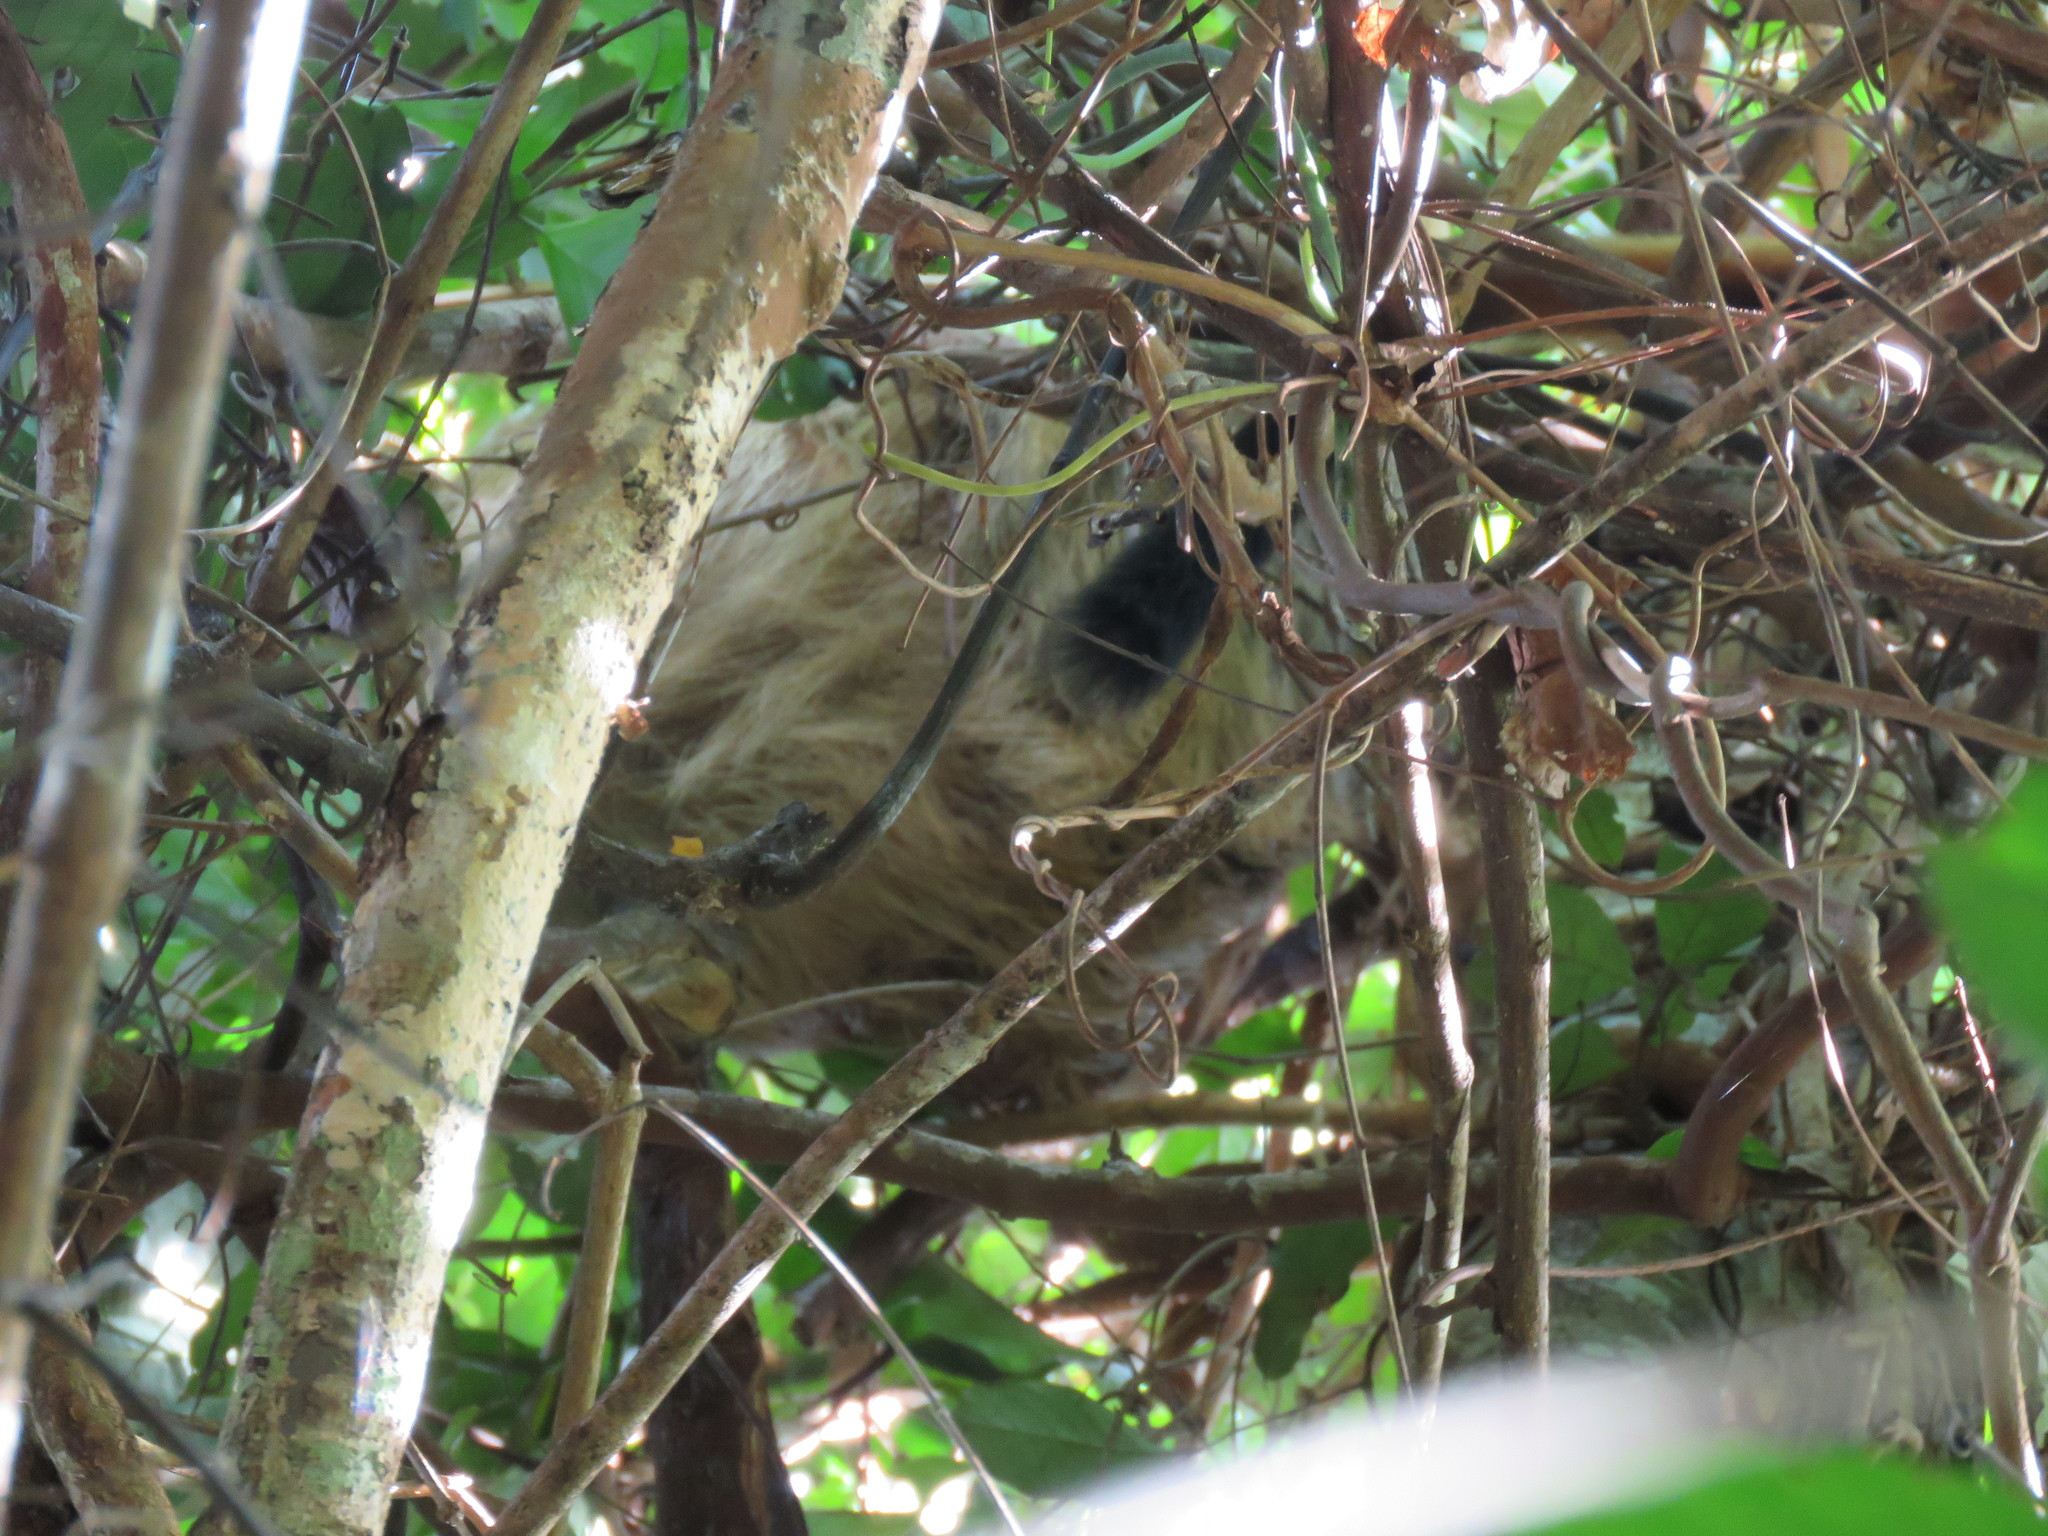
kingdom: Animalia
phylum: Chordata
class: Mammalia
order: Pilosa
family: Megalonychidae
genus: Choloepus
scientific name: Choloepus hoffmanni
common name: Hoffmann's two-toed sloth
